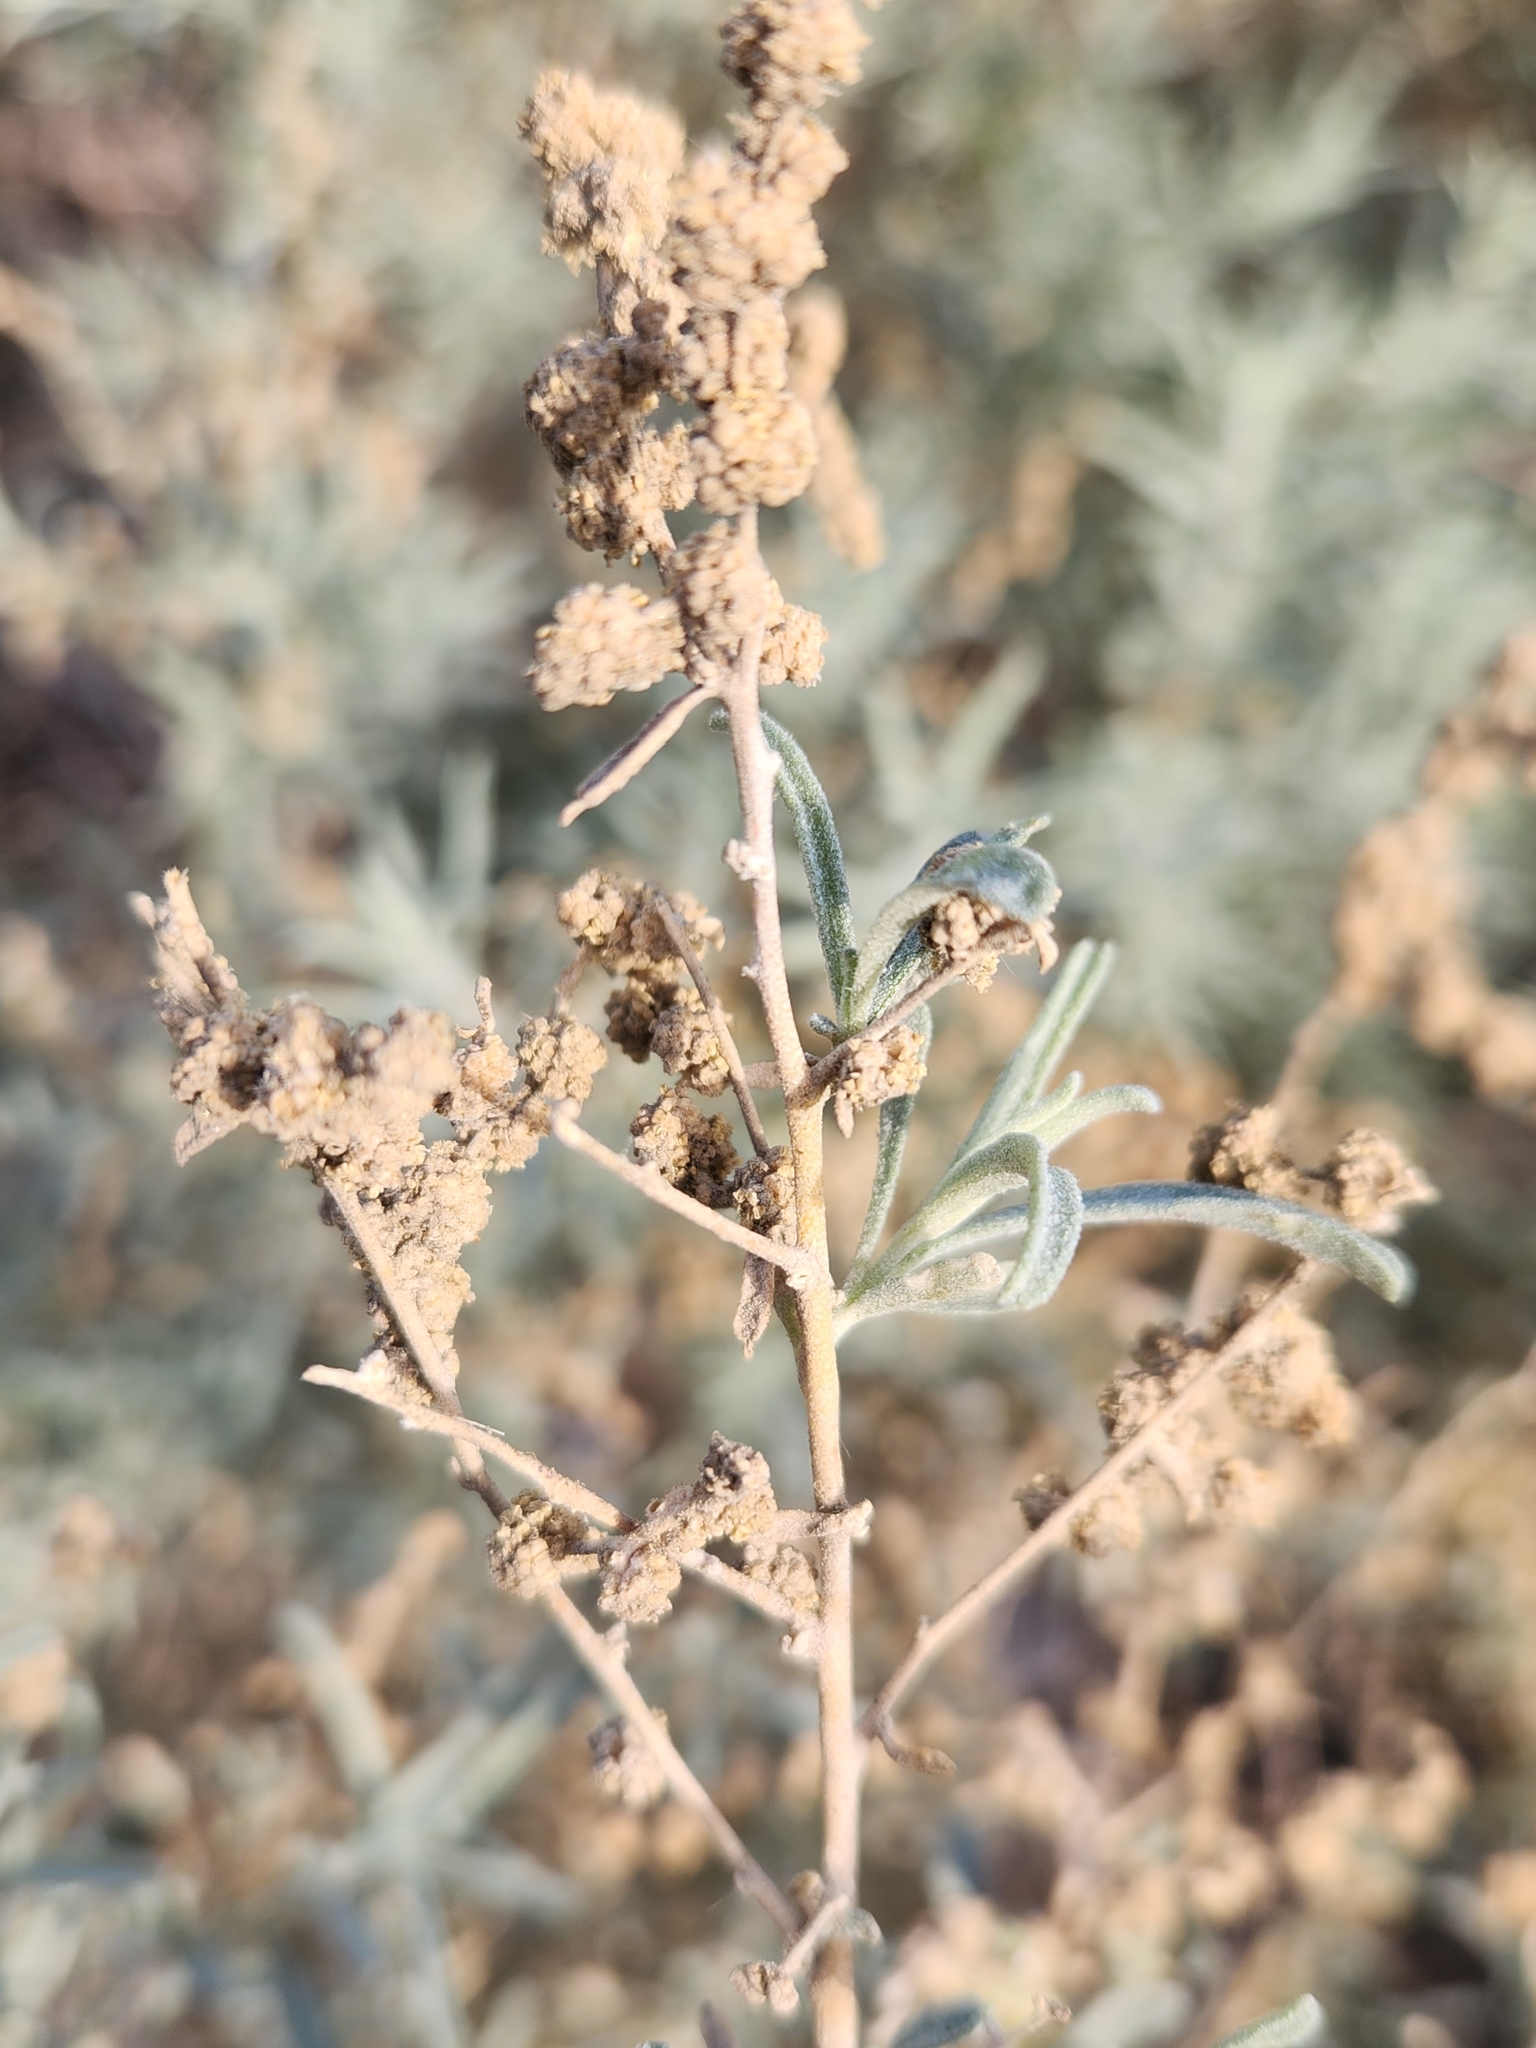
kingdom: Plantae
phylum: Tracheophyta
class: Magnoliopsida
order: Caryophyllales
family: Amaranthaceae
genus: Atriplex
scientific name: Atriplex canescens
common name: Four-wing saltbush
